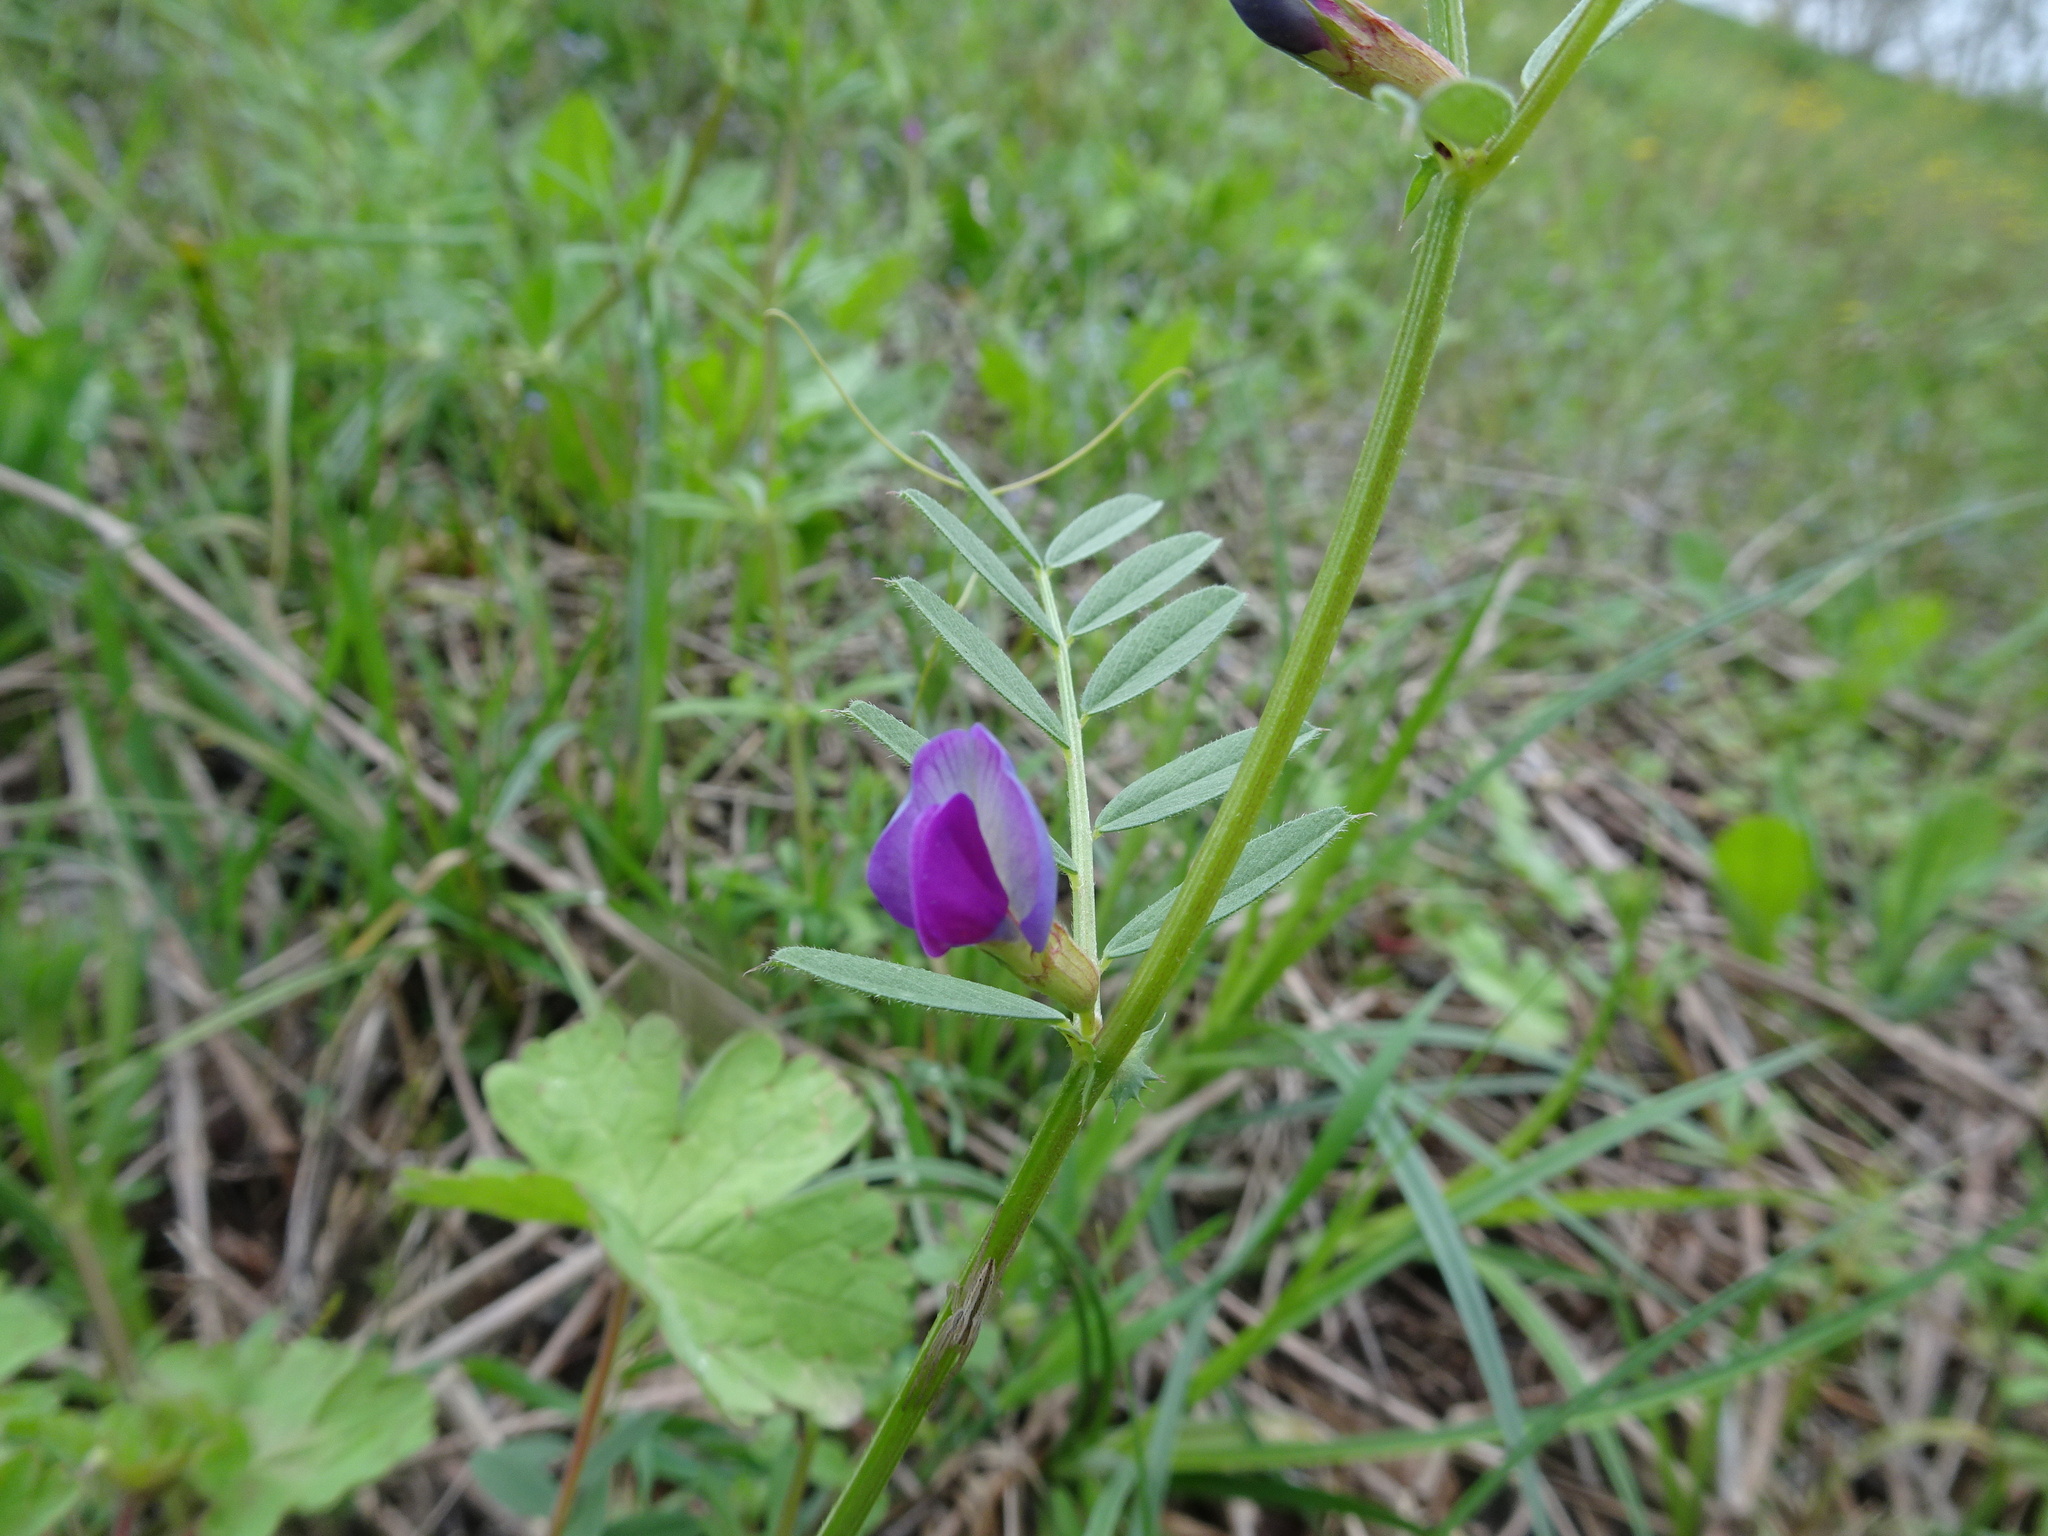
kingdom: Plantae
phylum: Tracheophyta
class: Magnoliopsida
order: Fabales
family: Fabaceae
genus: Vicia
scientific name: Vicia sativa
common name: Garden vetch
